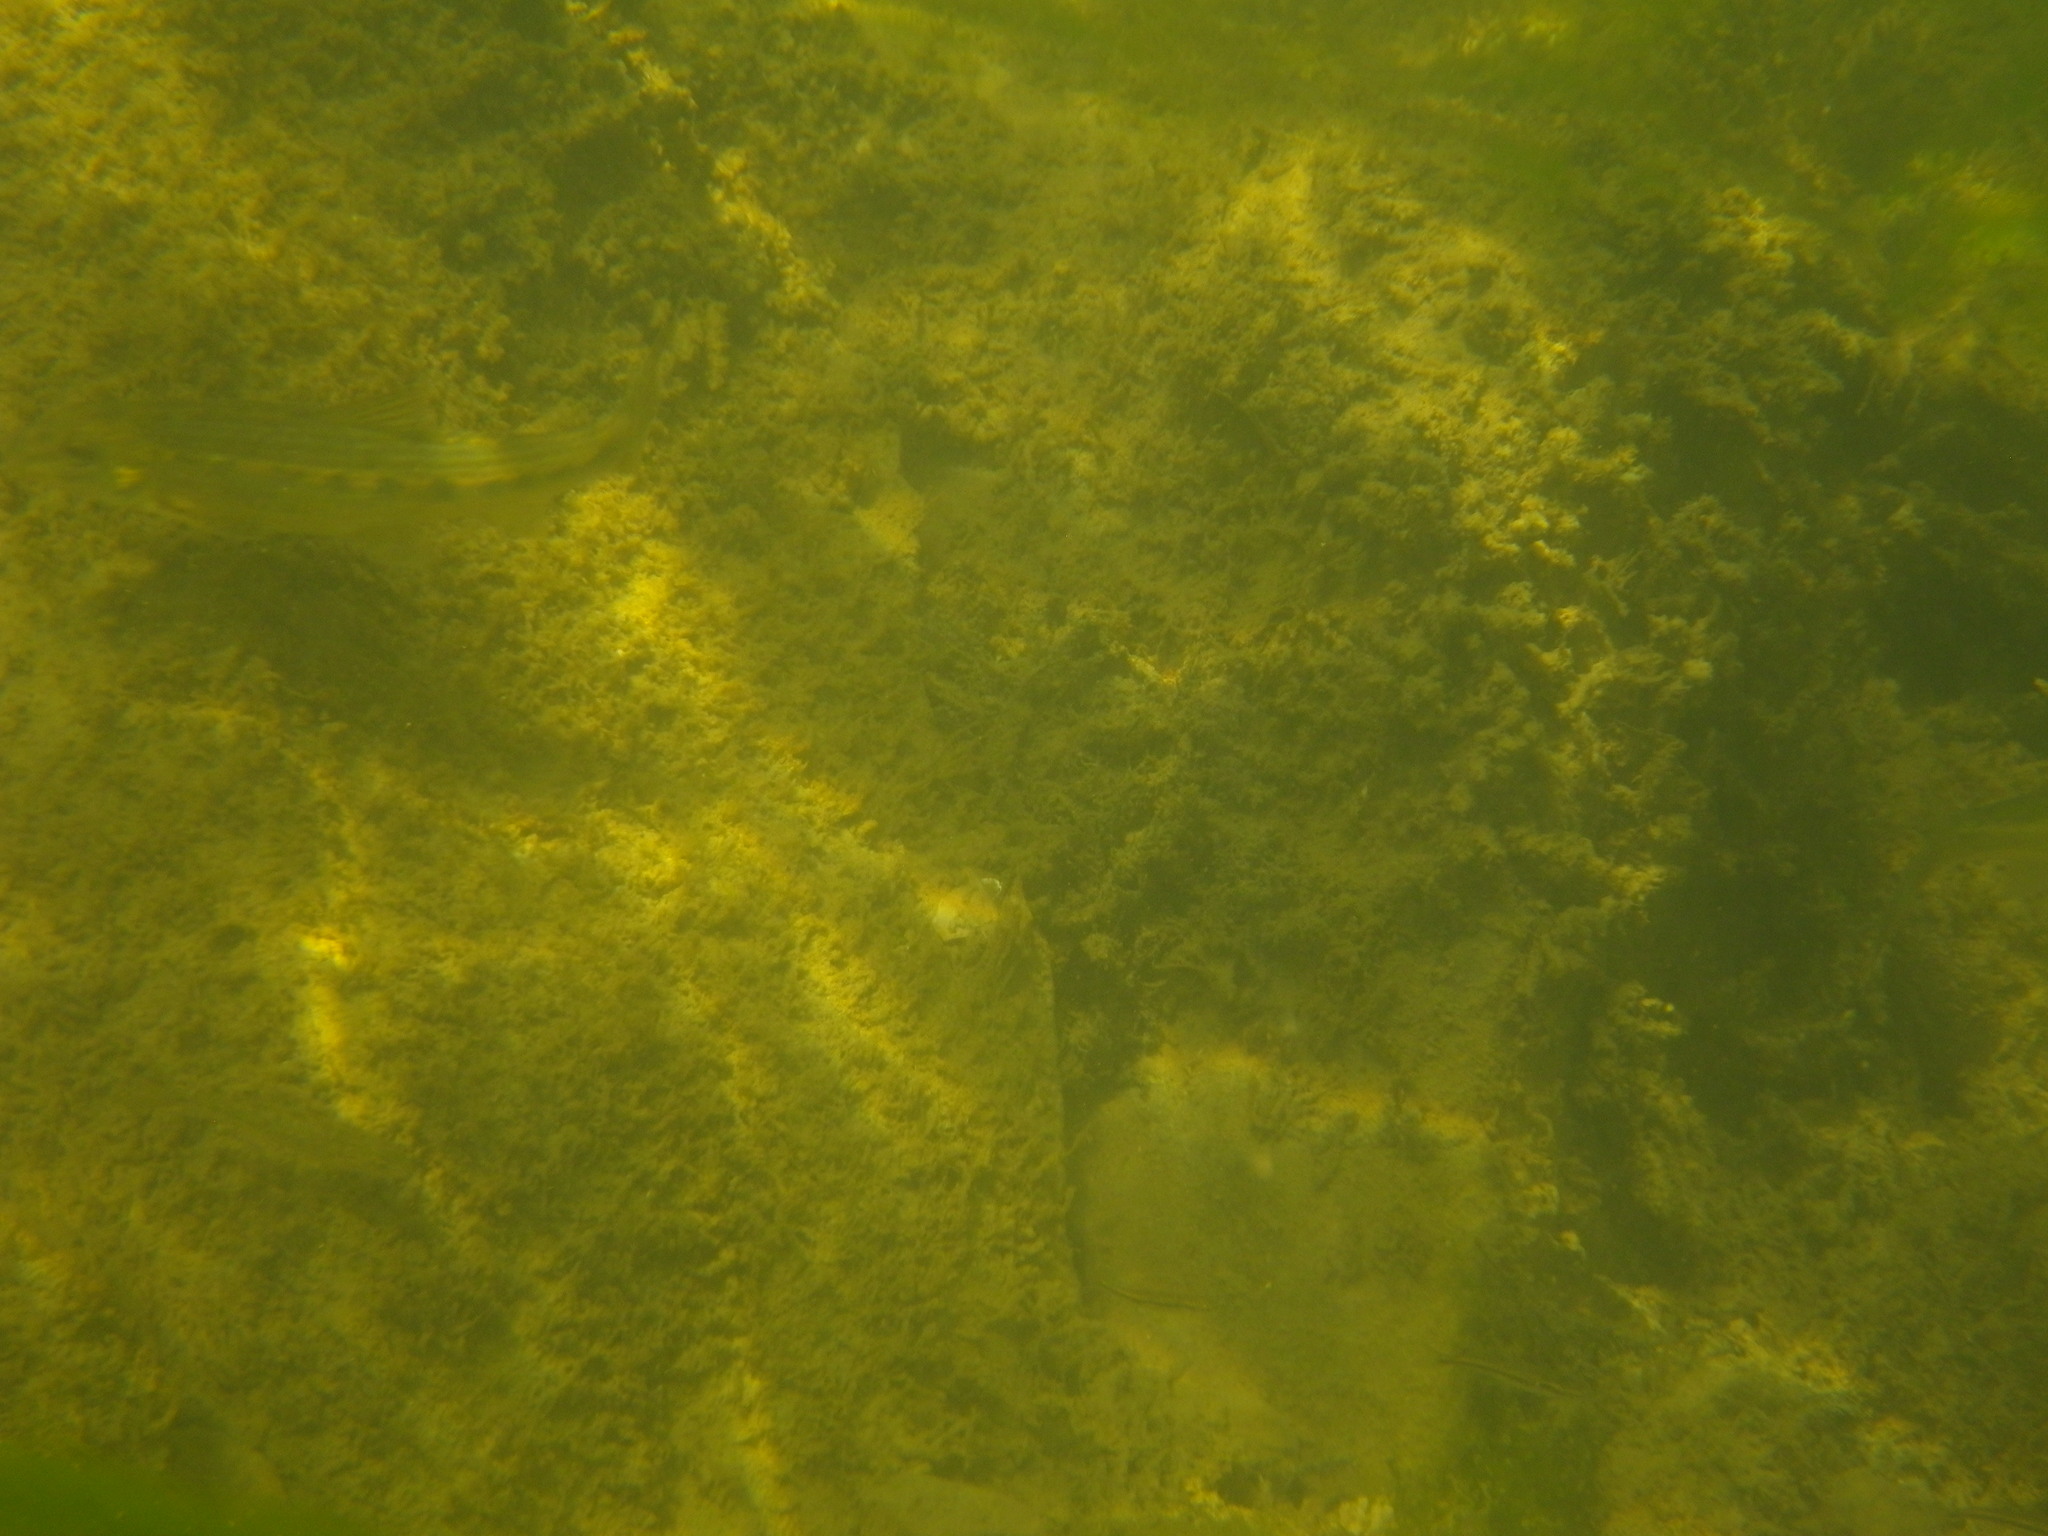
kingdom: Animalia
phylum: Chordata
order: Cypriniformes
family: Cyprinidae
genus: Gobio
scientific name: Gobio occitaniae
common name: Languedoc gudgeon
